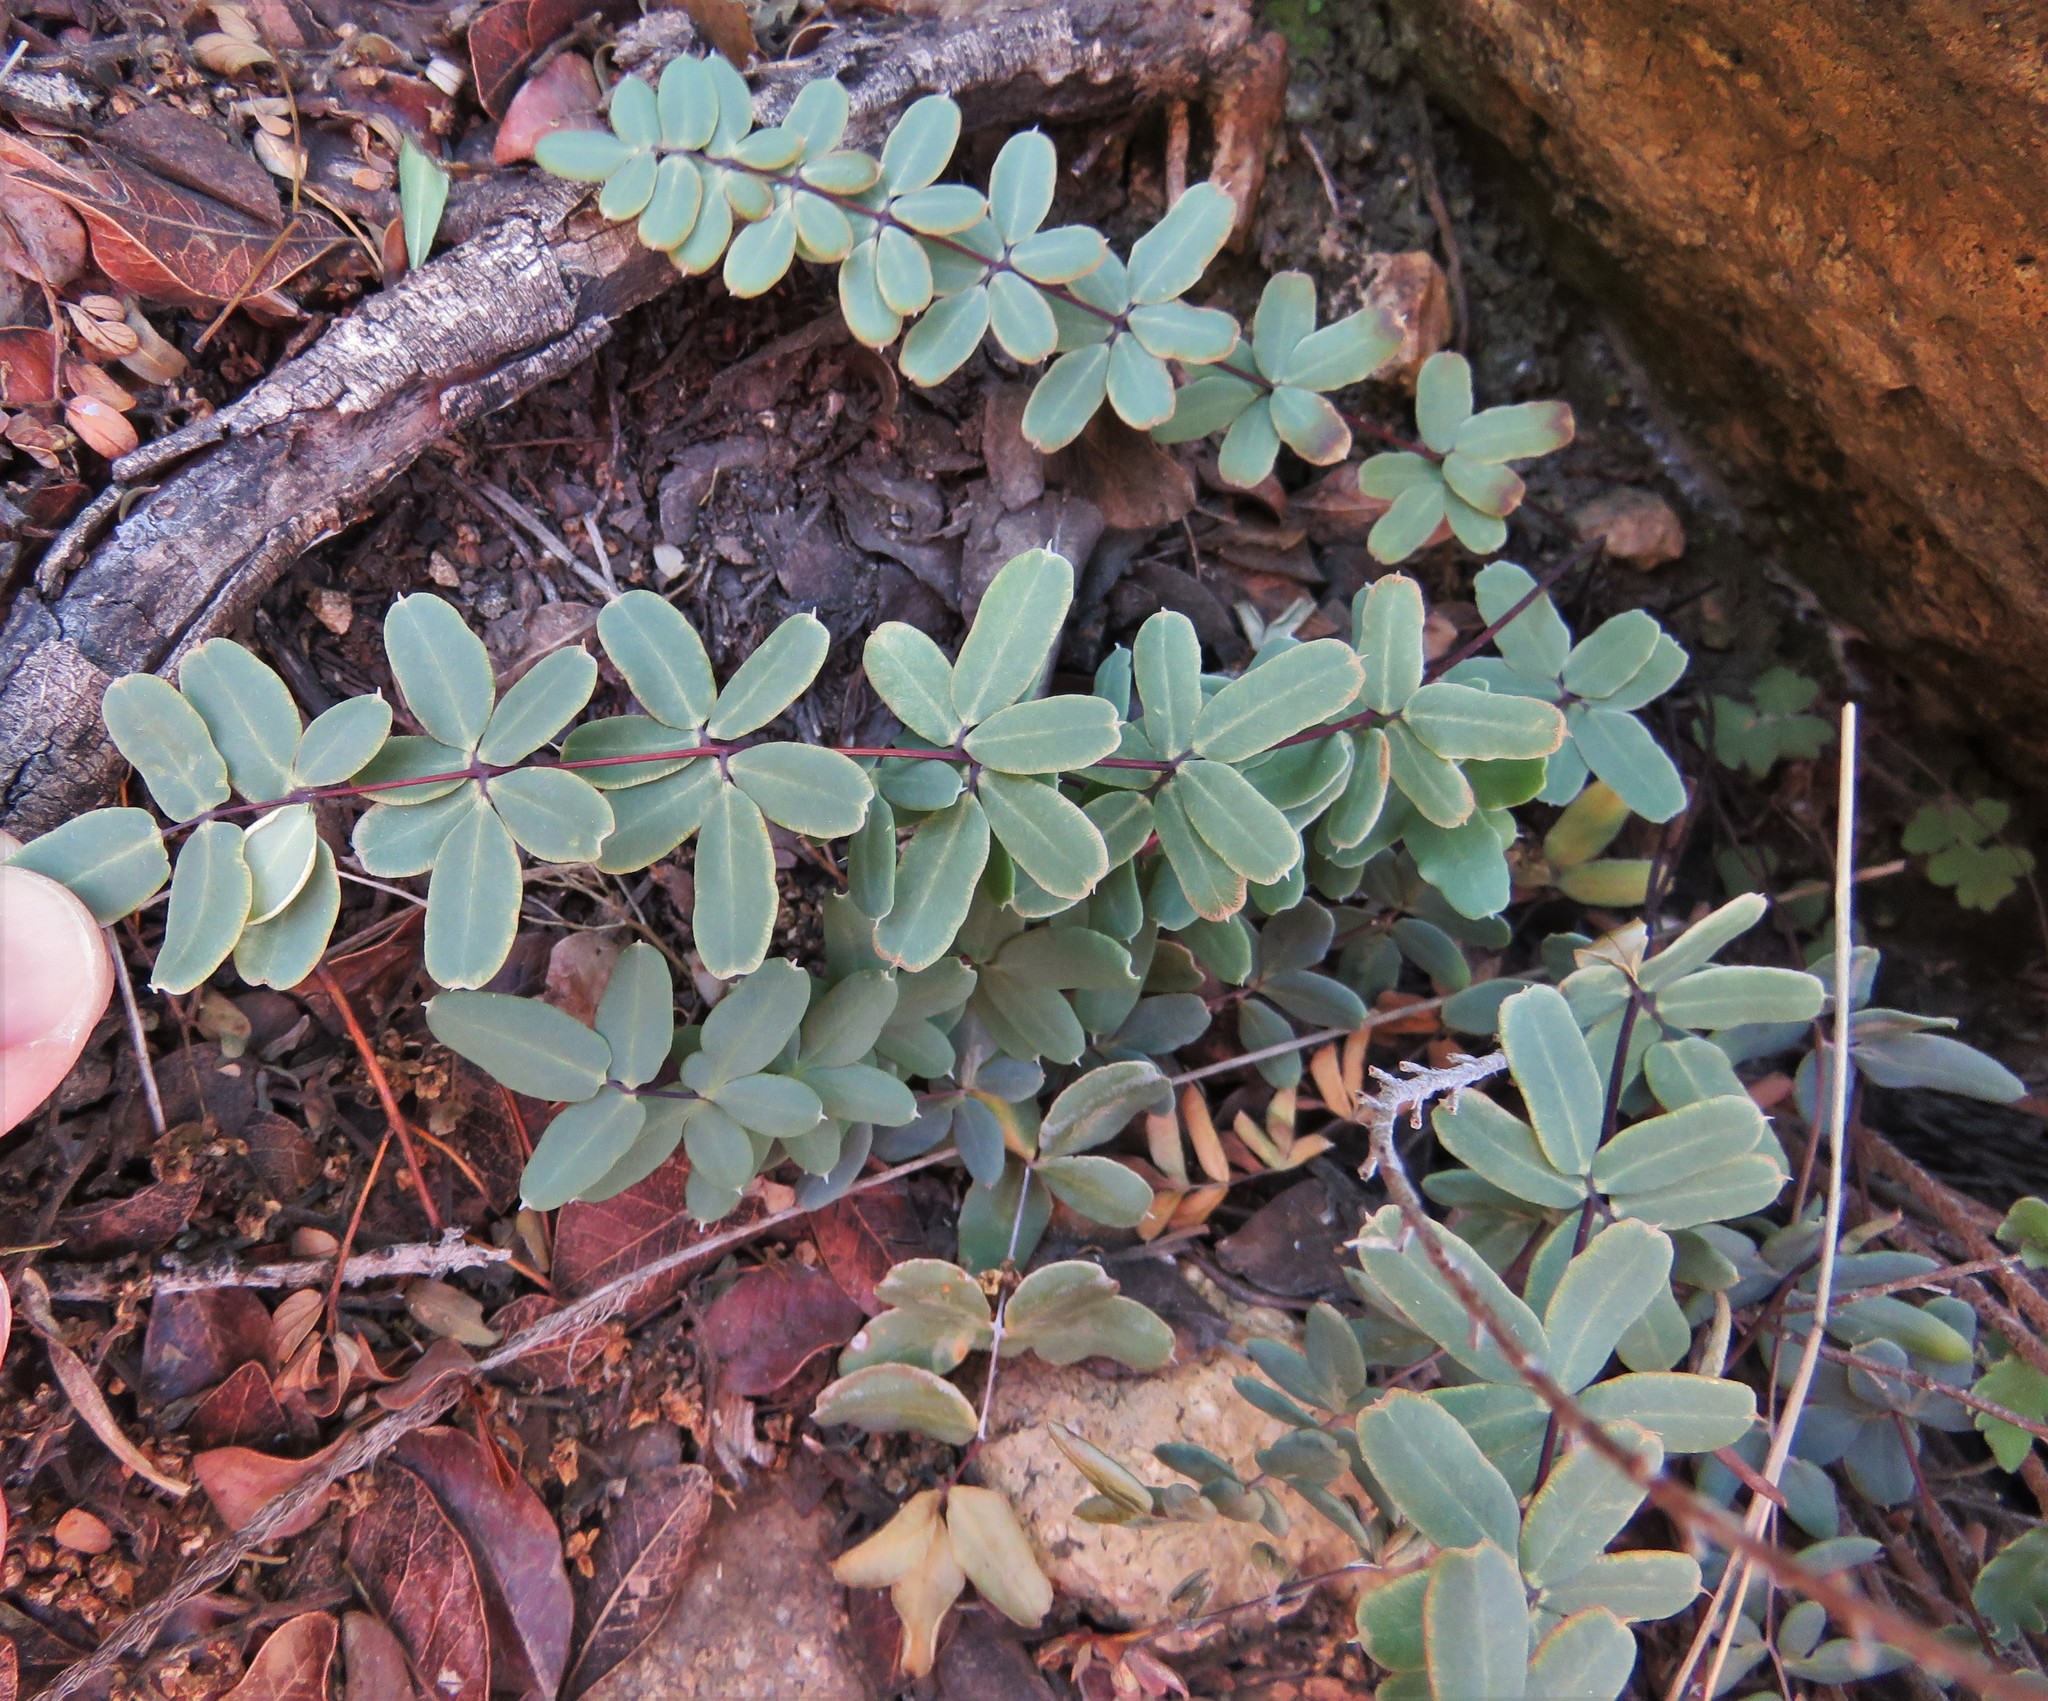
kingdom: Plantae
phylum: Tracheophyta
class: Polypodiopsida
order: Polypodiales
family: Pteridaceae
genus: Pellaea
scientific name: Pellaea wrightiana
